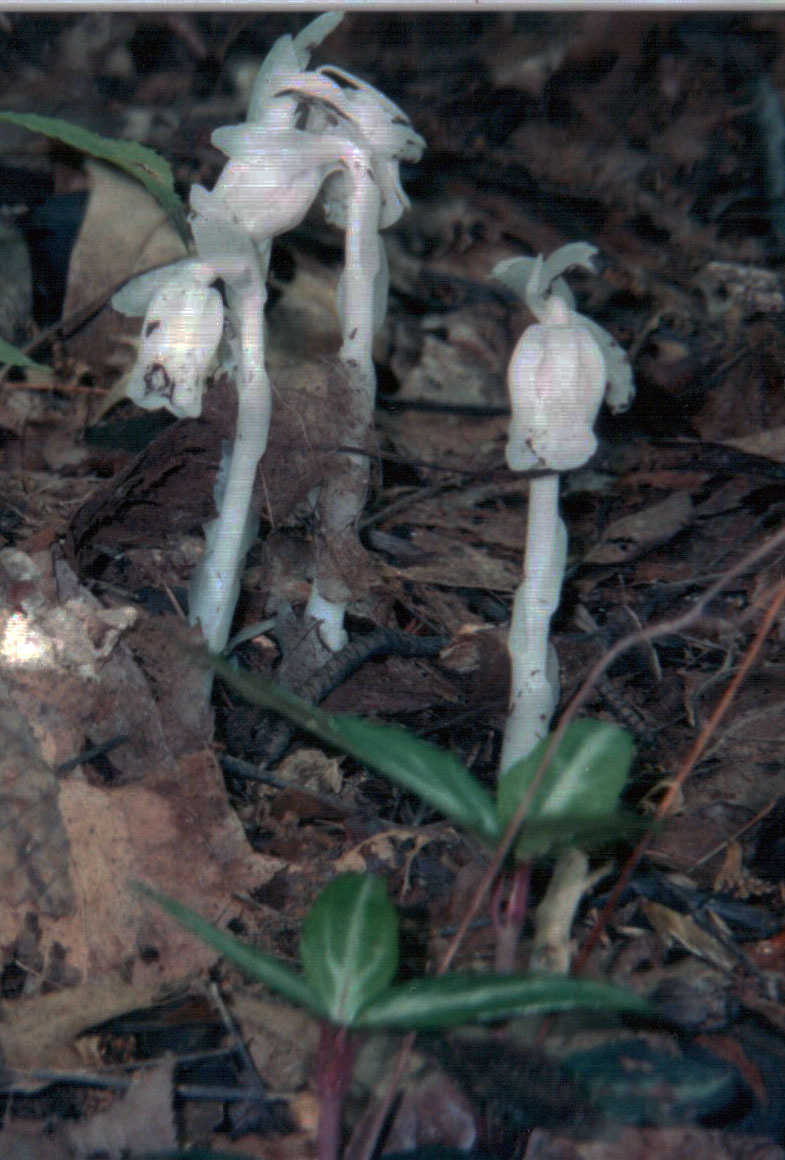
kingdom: Plantae
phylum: Tracheophyta
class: Magnoliopsida
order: Ericales
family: Ericaceae
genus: Monotropa
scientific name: Monotropa uniflora
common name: Convulsion root
